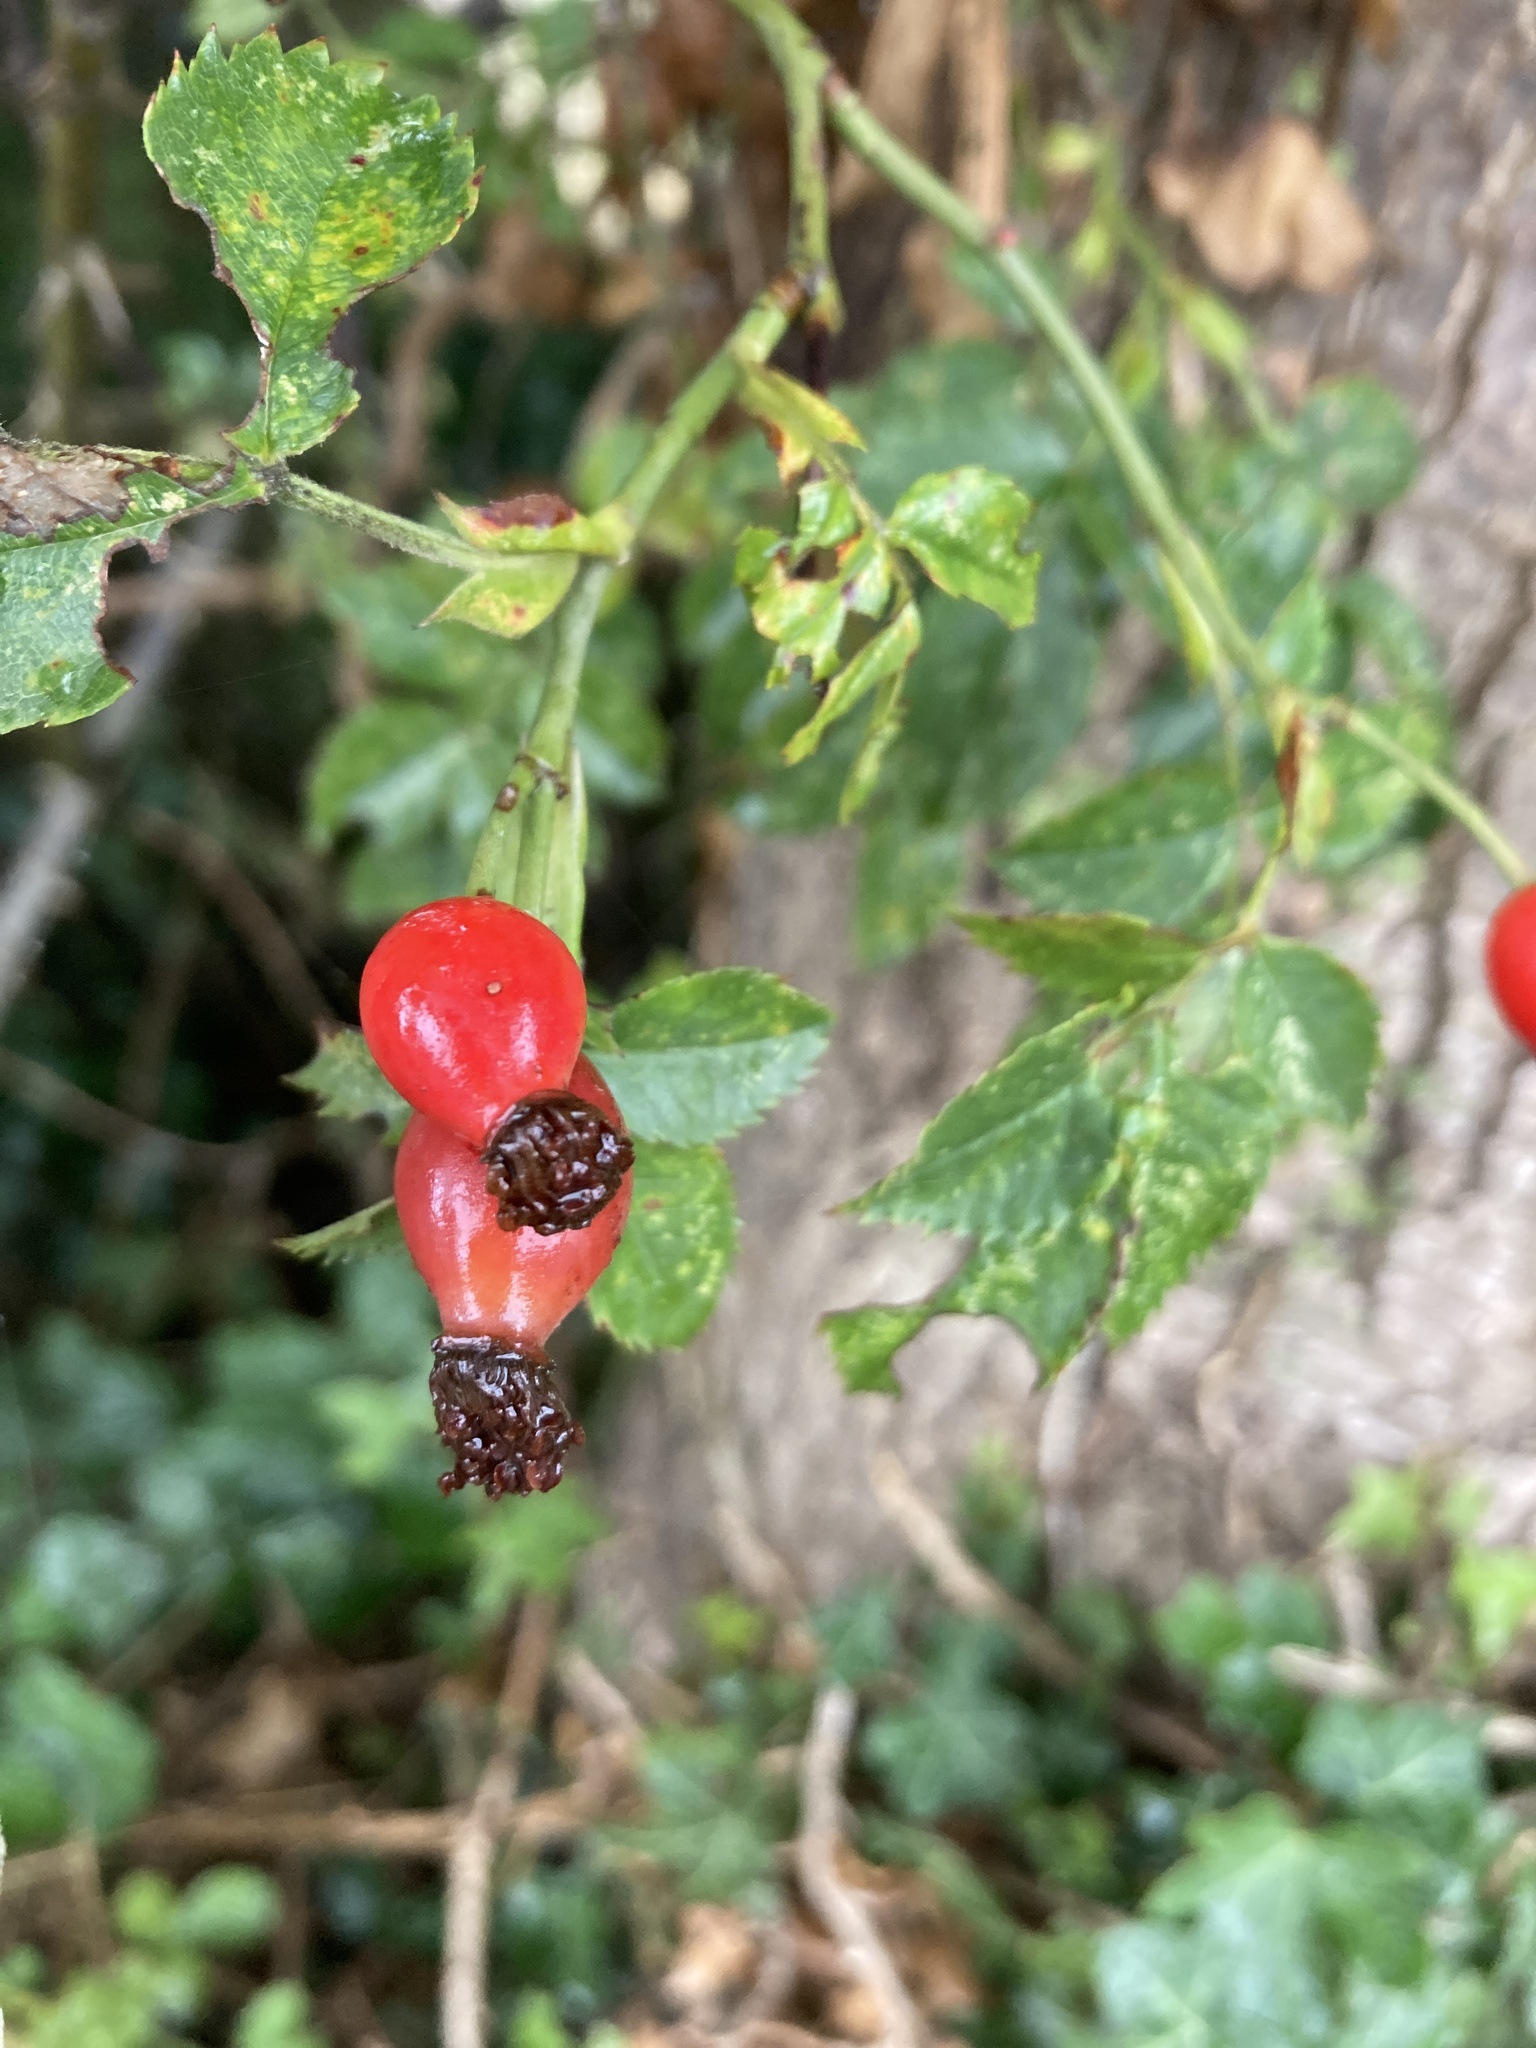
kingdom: Plantae
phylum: Tracheophyta
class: Magnoliopsida
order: Rosales
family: Rosaceae
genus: Rosa
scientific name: Rosa canina
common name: Dog rose
